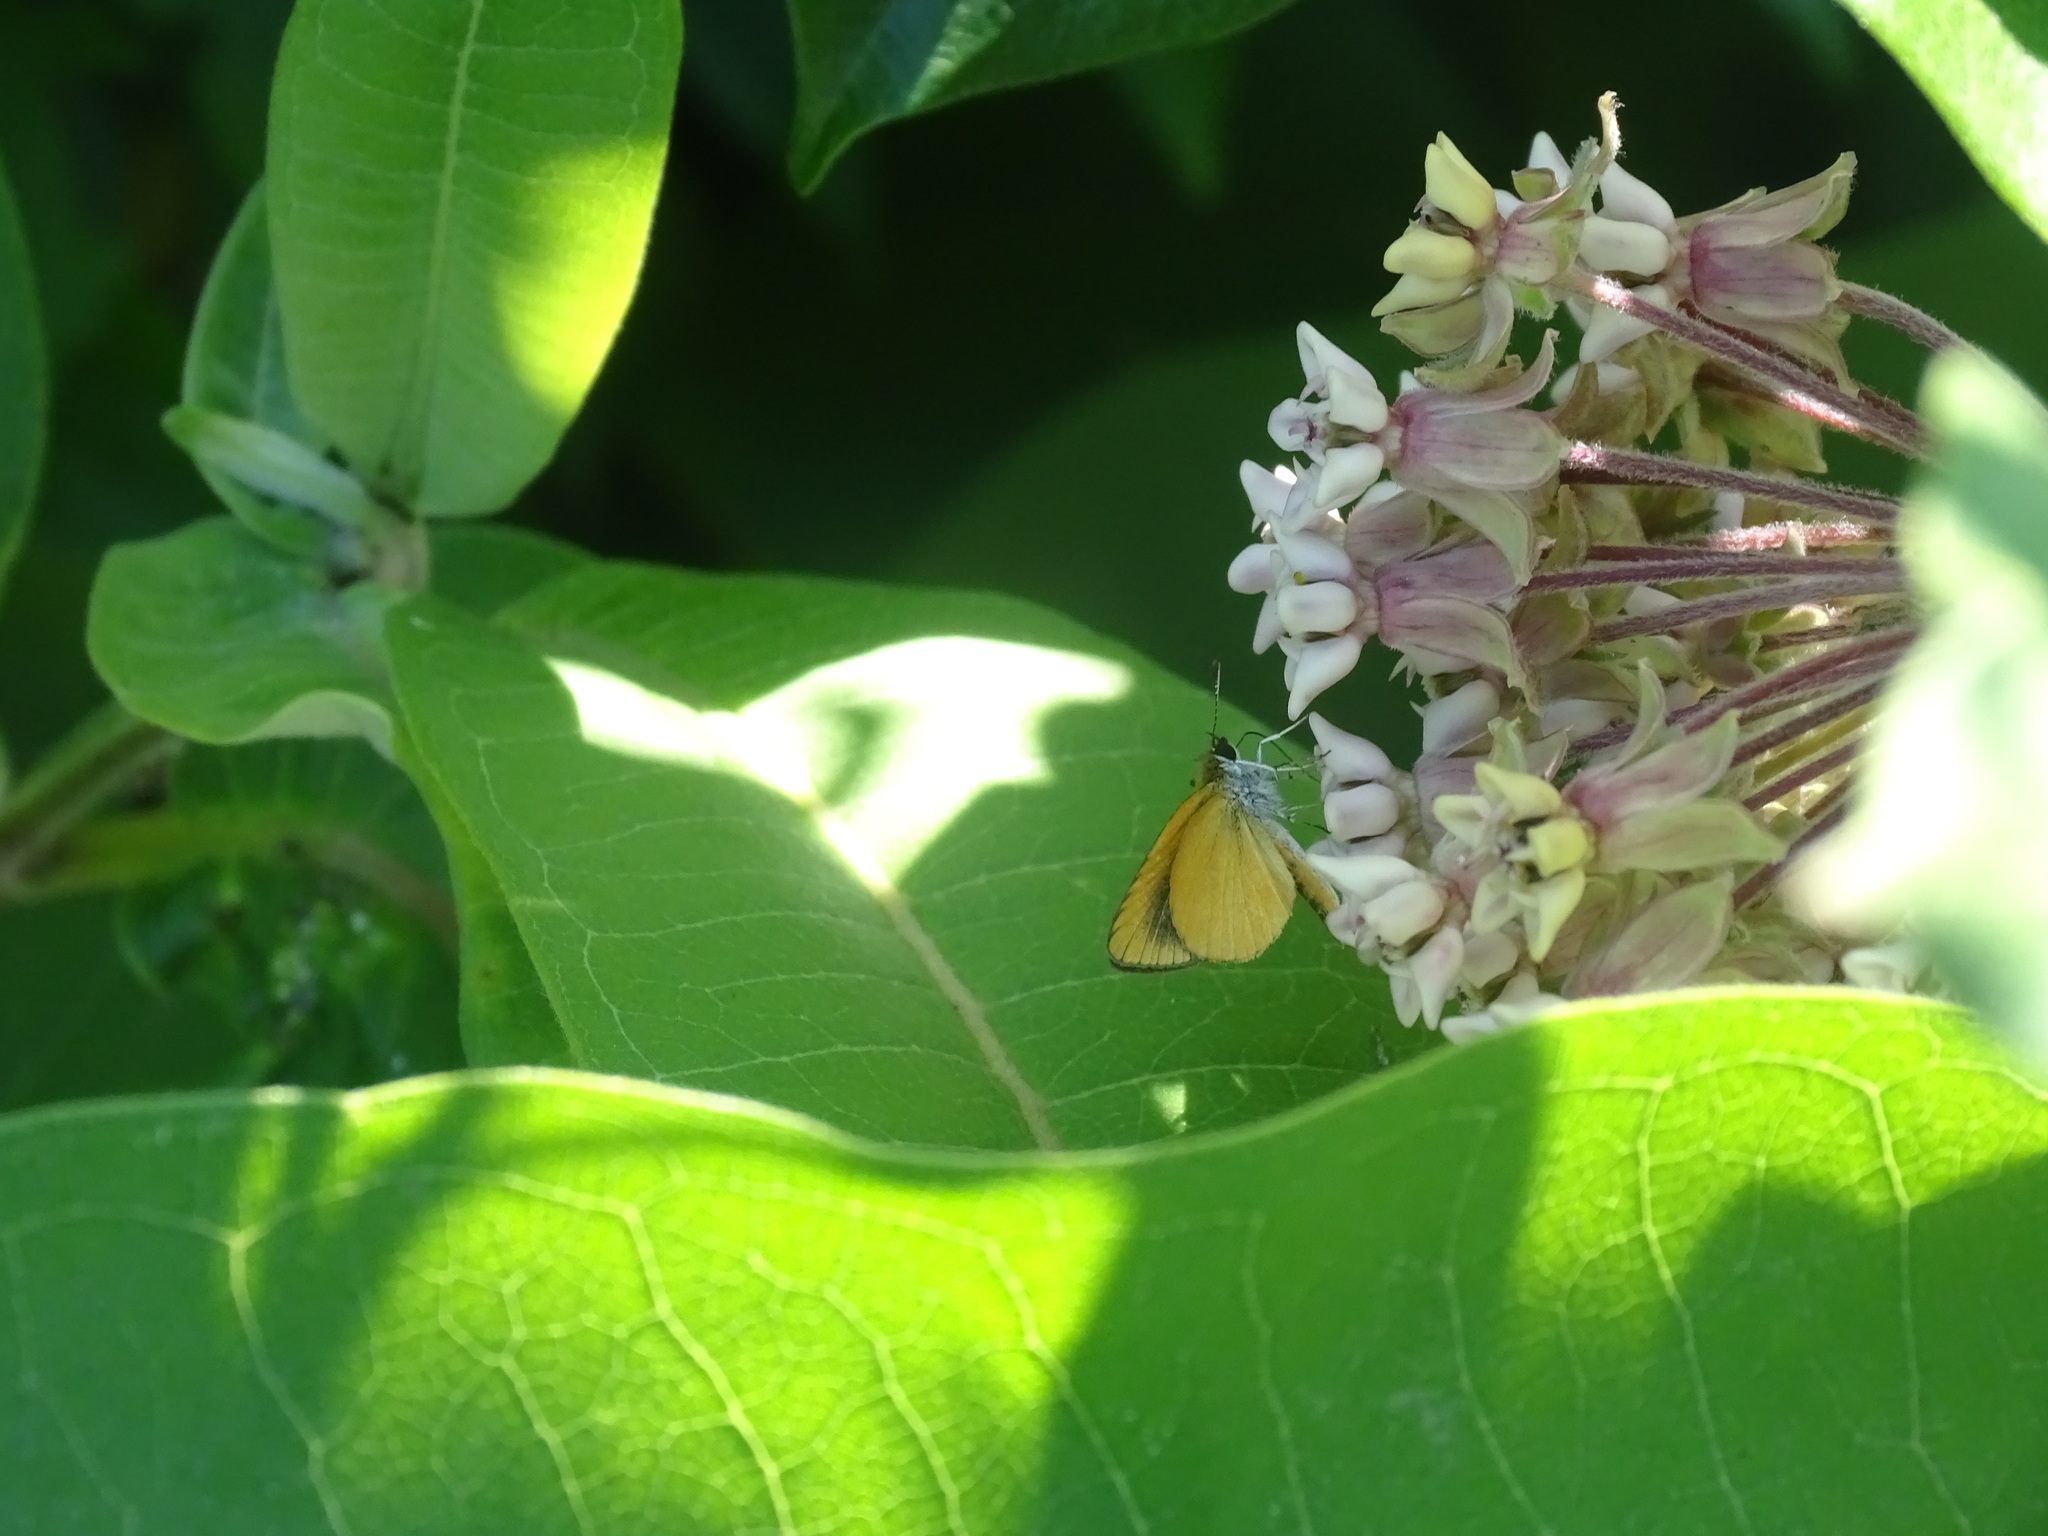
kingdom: Animalia
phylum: Arthropoda
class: Insecta
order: Lepidoptera
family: Hesperiidae
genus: Ancyloxypha
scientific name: Ancyloxypha numitor
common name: Least skipper
